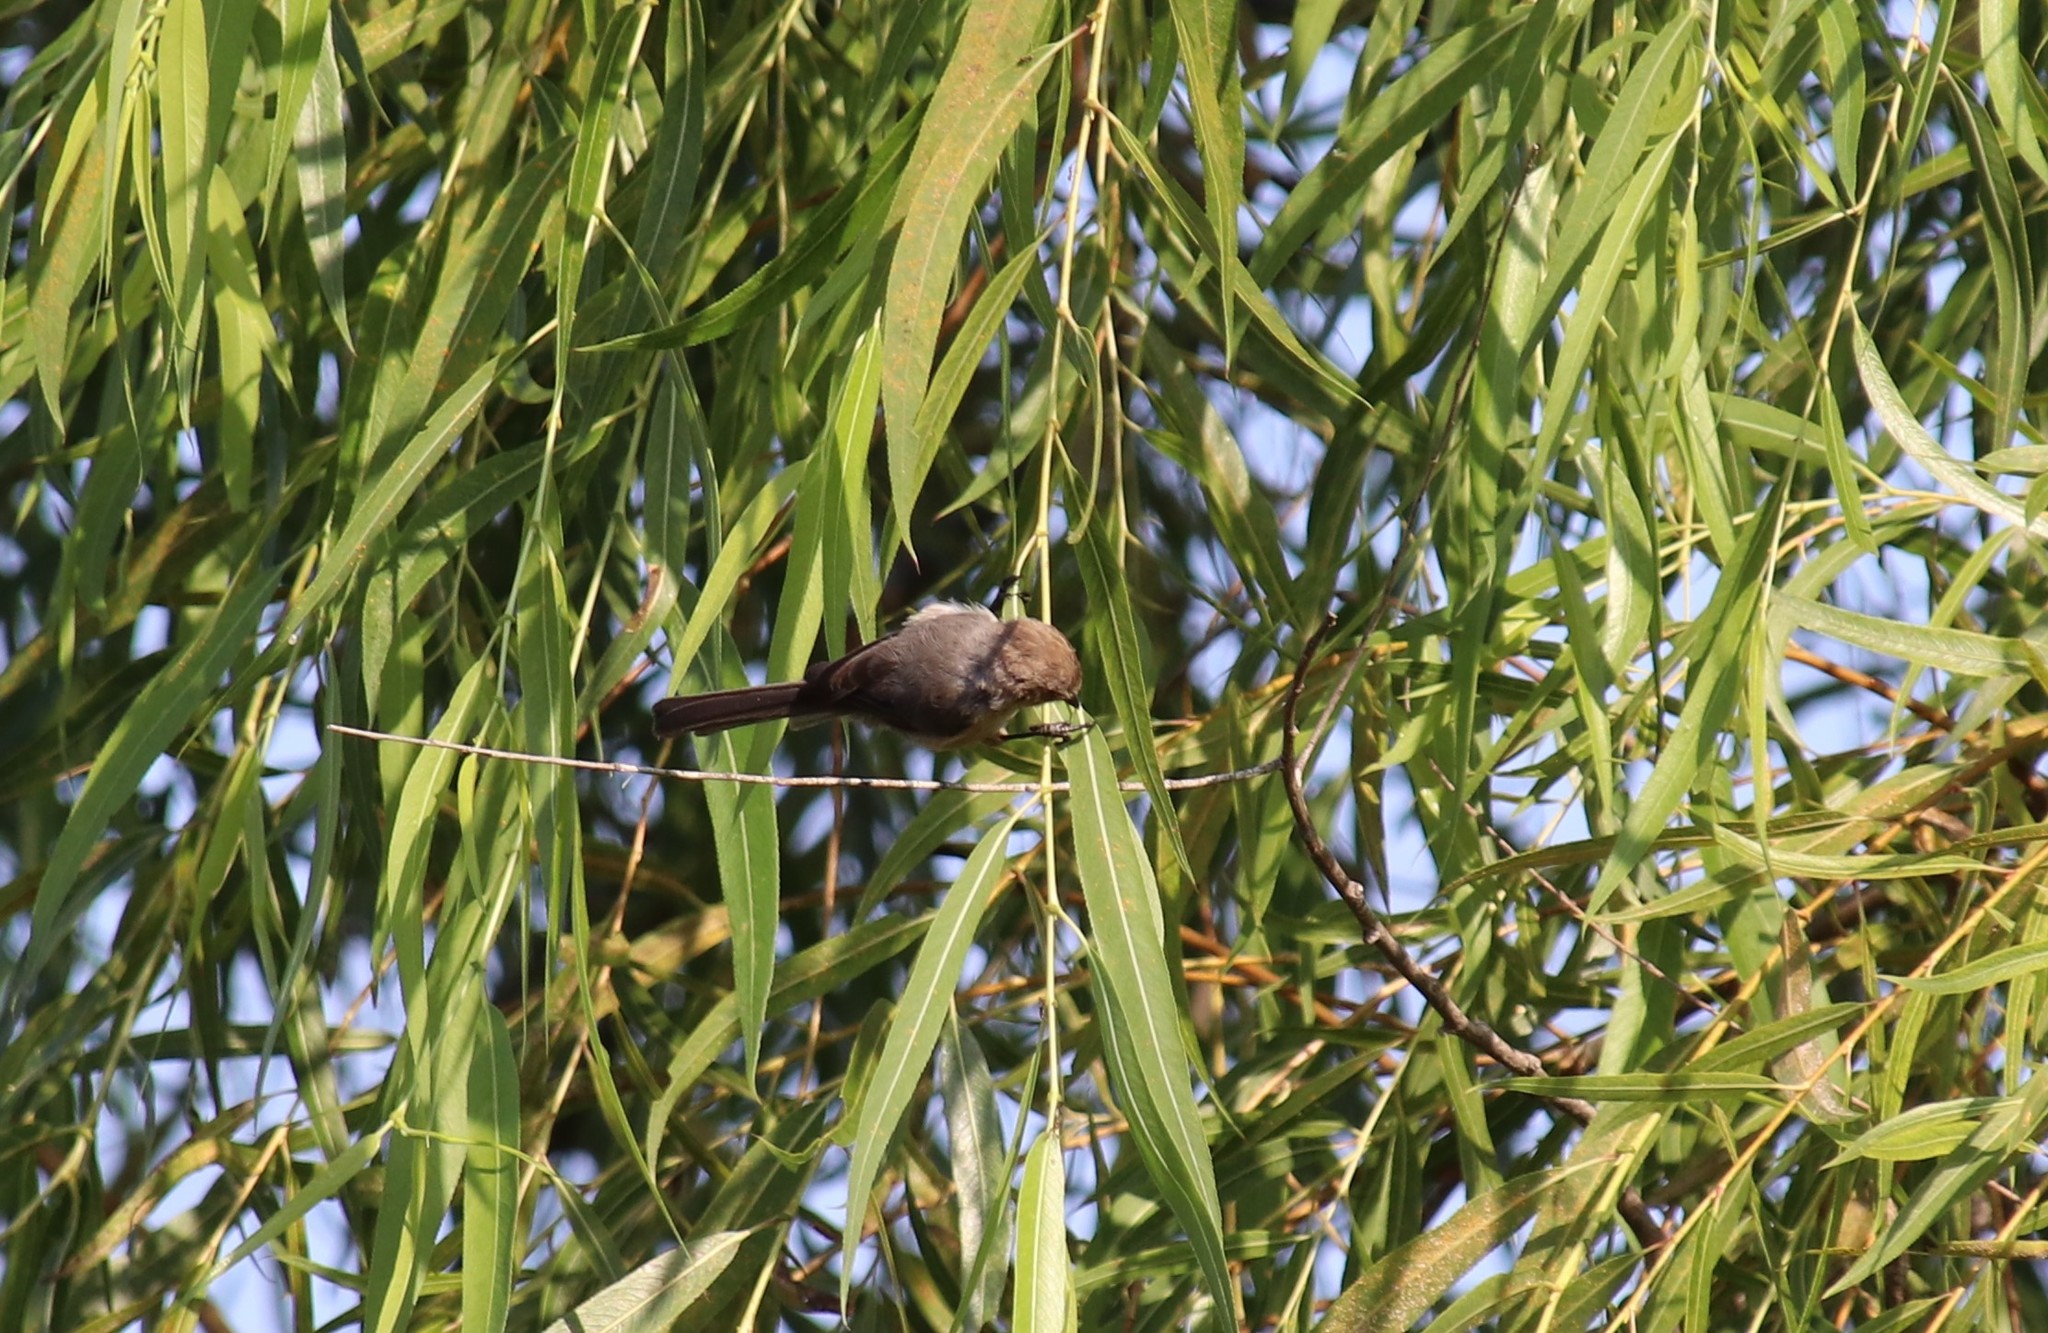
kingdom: Animalia
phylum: Chordata
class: Aves
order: Passeriformes
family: Aegithalidae
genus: Psaltriparus
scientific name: Psaltriparus minimus
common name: American bushtit
